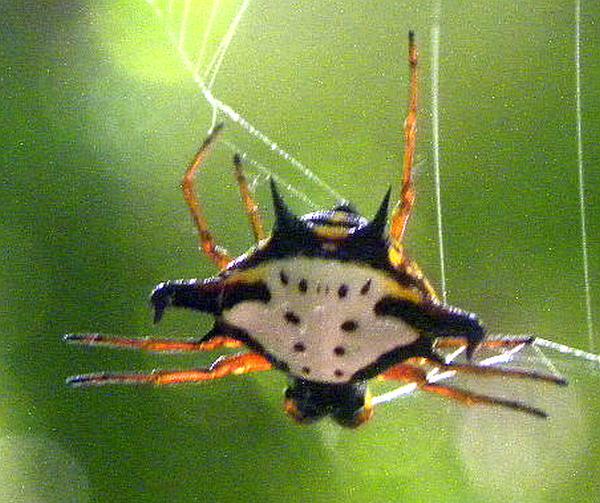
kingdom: Animalia
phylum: Arthropoda
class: Arachnida
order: Araneae
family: Araneidae
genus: Gasteracantha
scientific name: Gasteracantha crucigera
